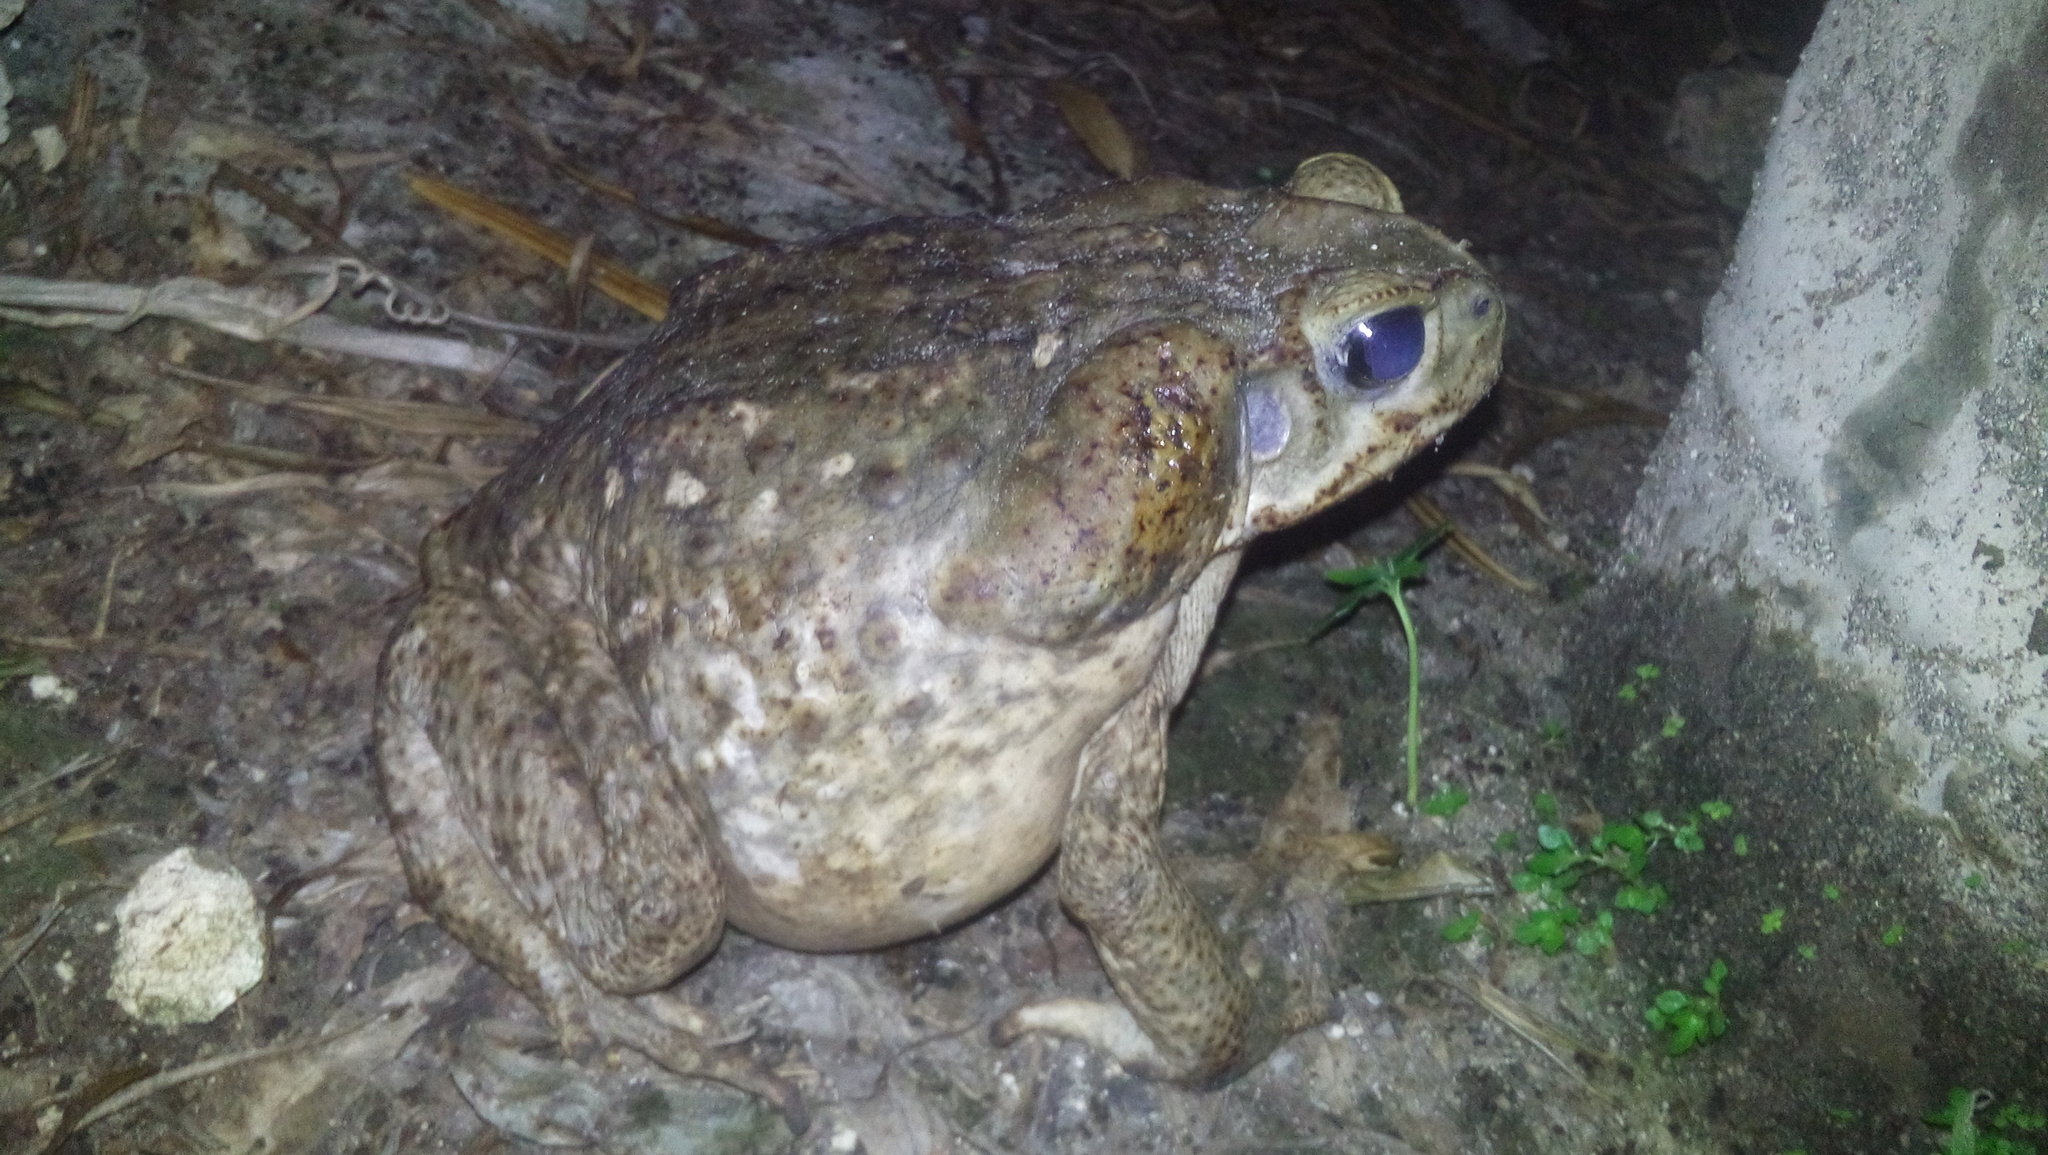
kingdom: Animalia
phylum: Chordata
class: Amphibia
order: Anura
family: Bufonidae
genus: Rhinella
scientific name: Rhinella horribilis
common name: Mesoamerican cane toad
